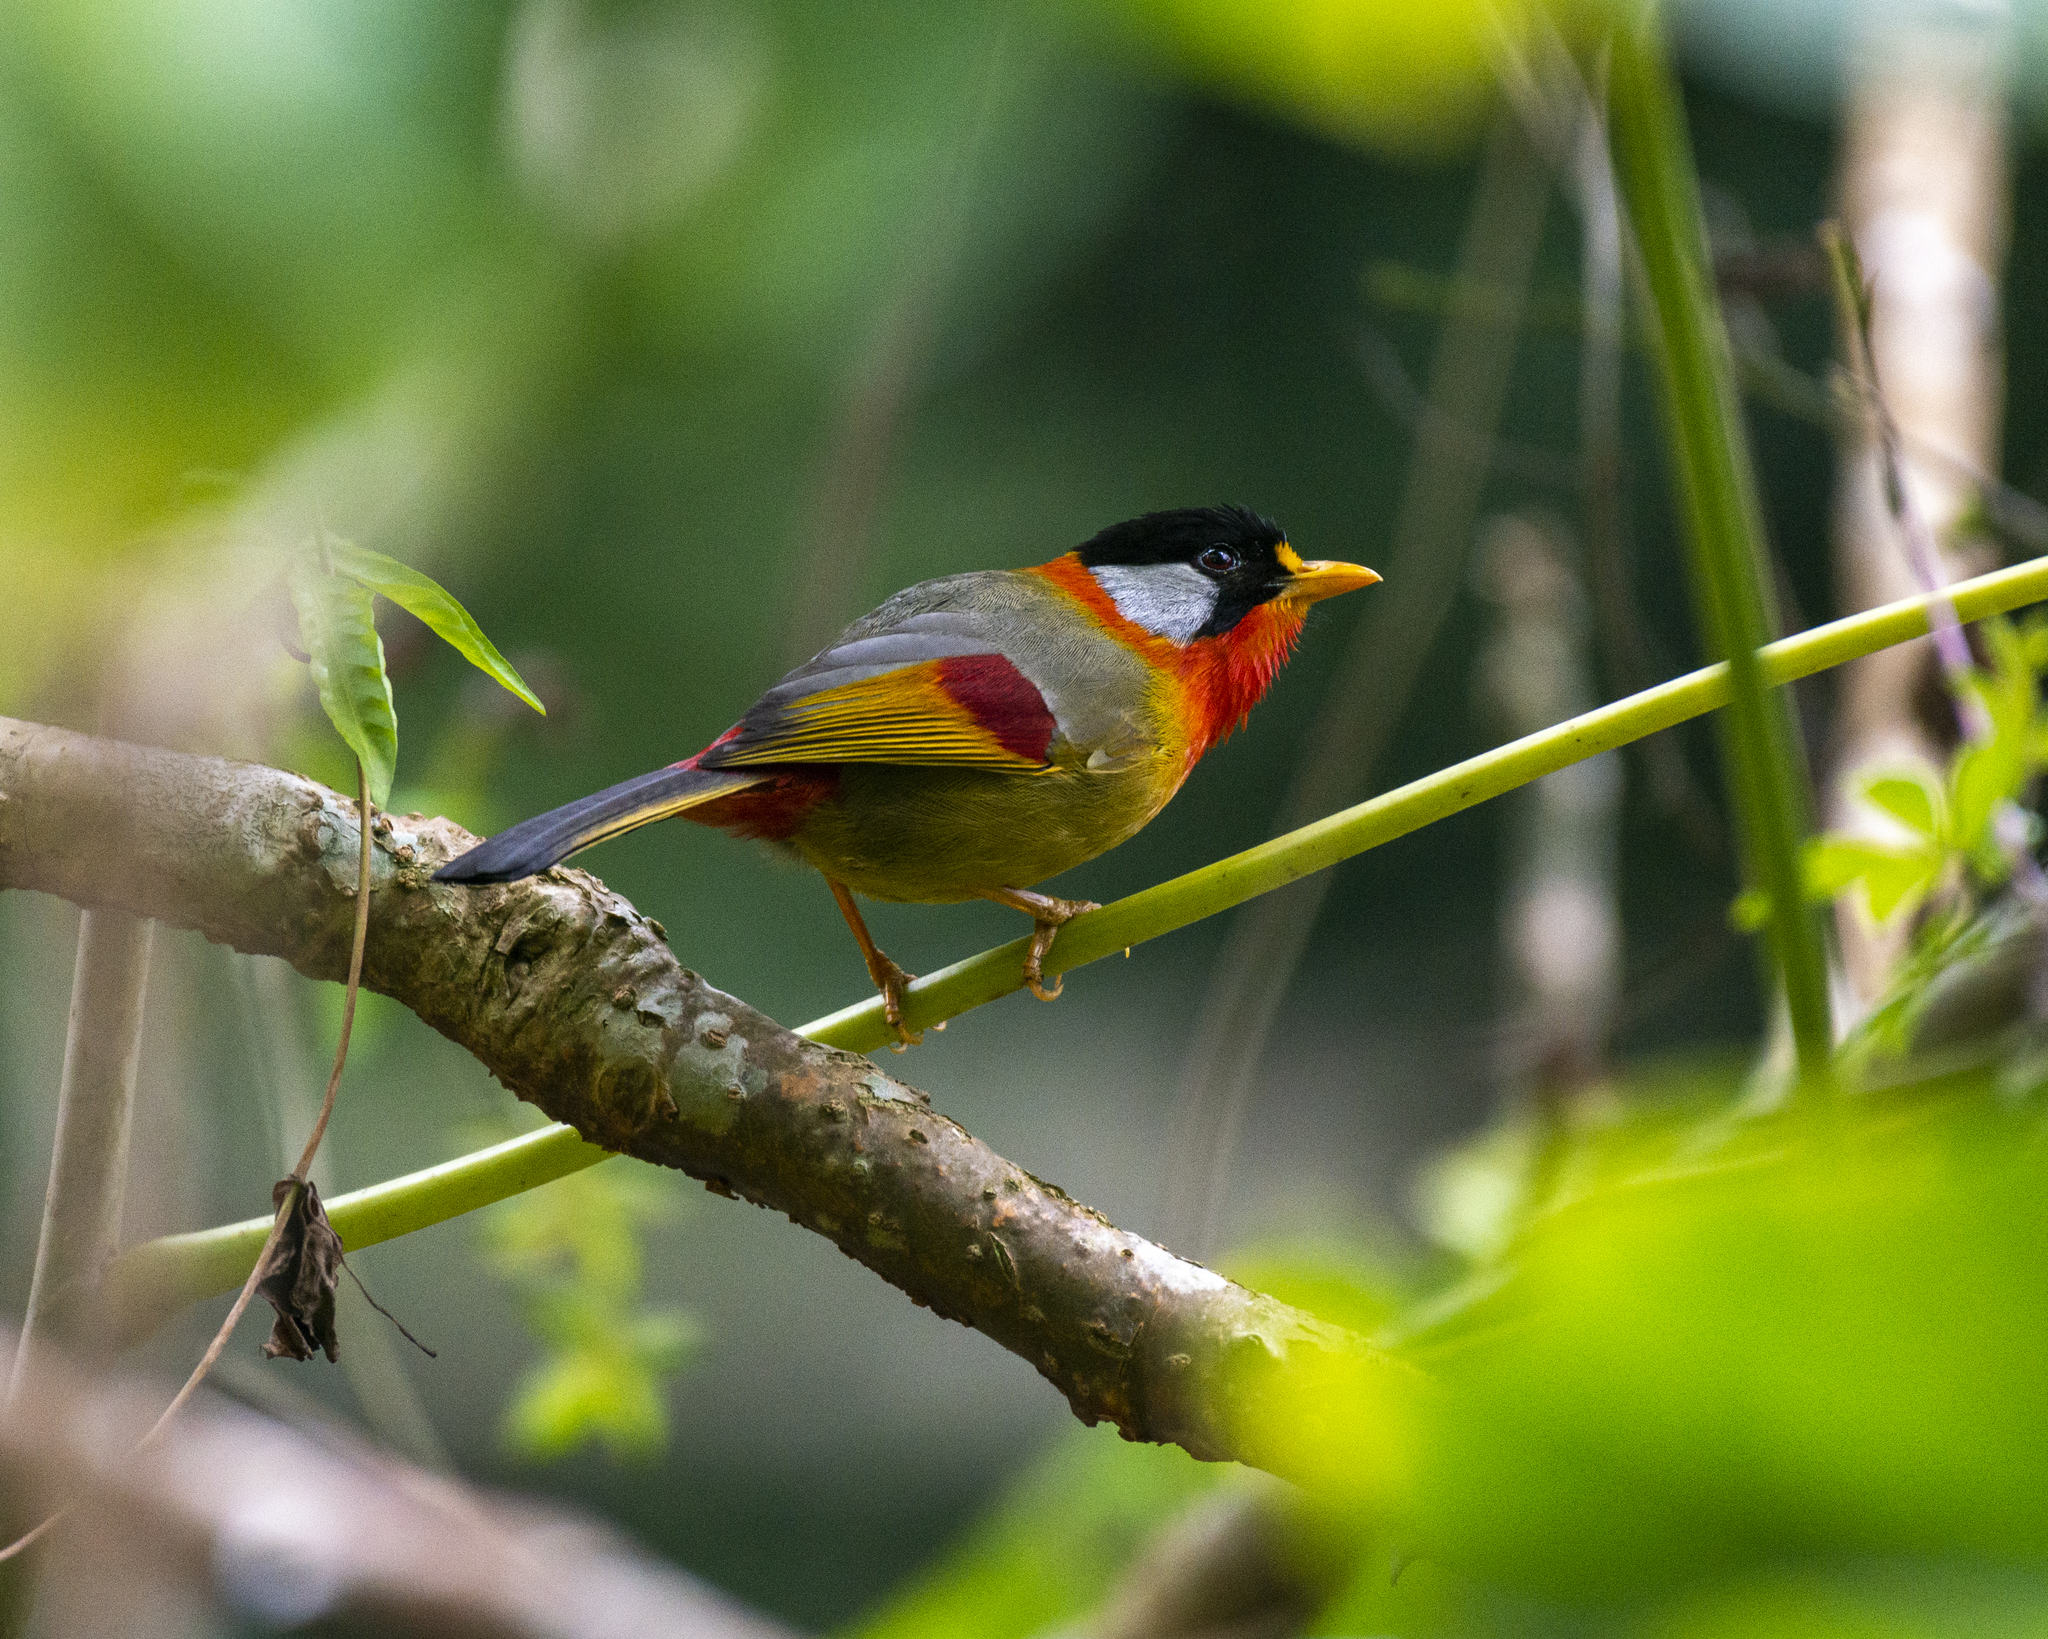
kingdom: Animalia
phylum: Chordata
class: Aves
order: Passeriformes
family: Leiothrichidae
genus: Leiothrix
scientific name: Leiothrix argentauris
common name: Silver-eared mesia
